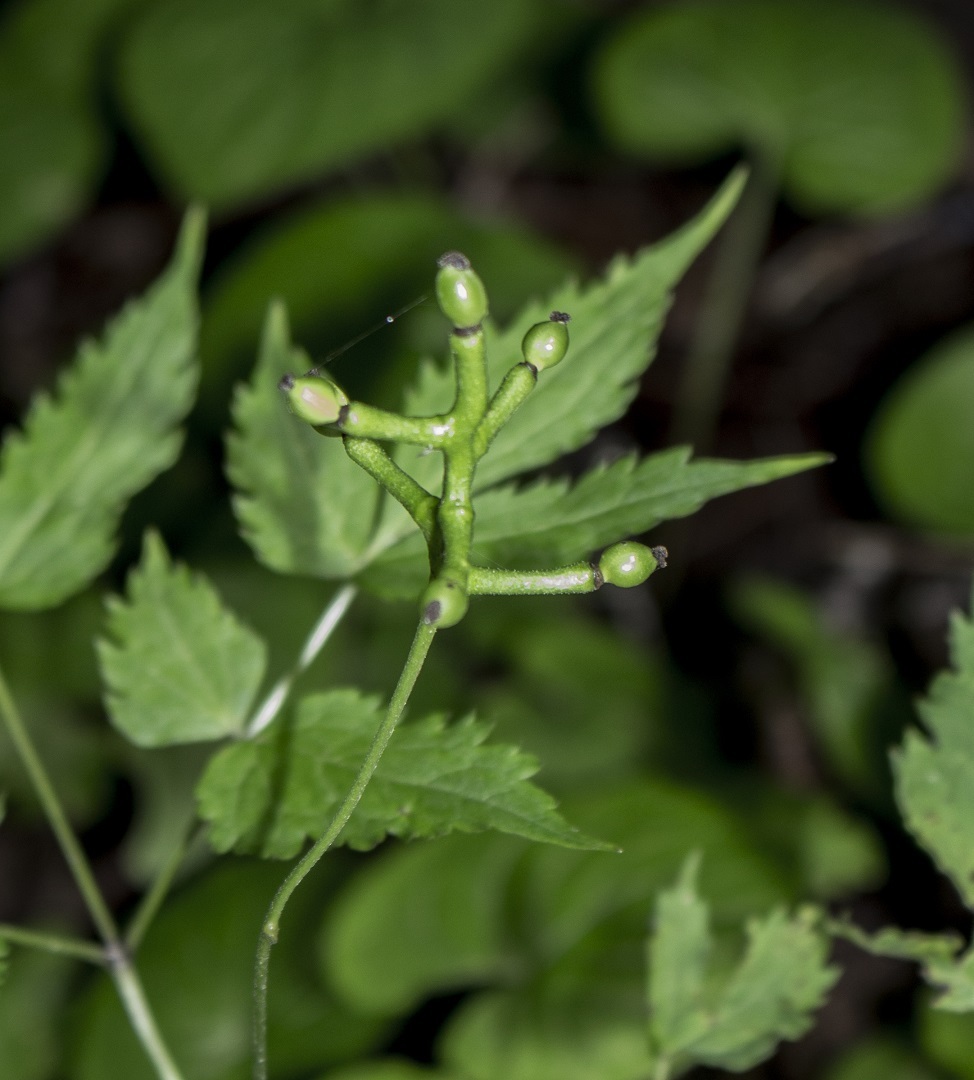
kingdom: Plantae
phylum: Tracheophyta
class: Magnoliopsida
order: Ranunculales
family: Ranunculaceae
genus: Actaea
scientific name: Actaea pachypoda
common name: Doll's-eyes
